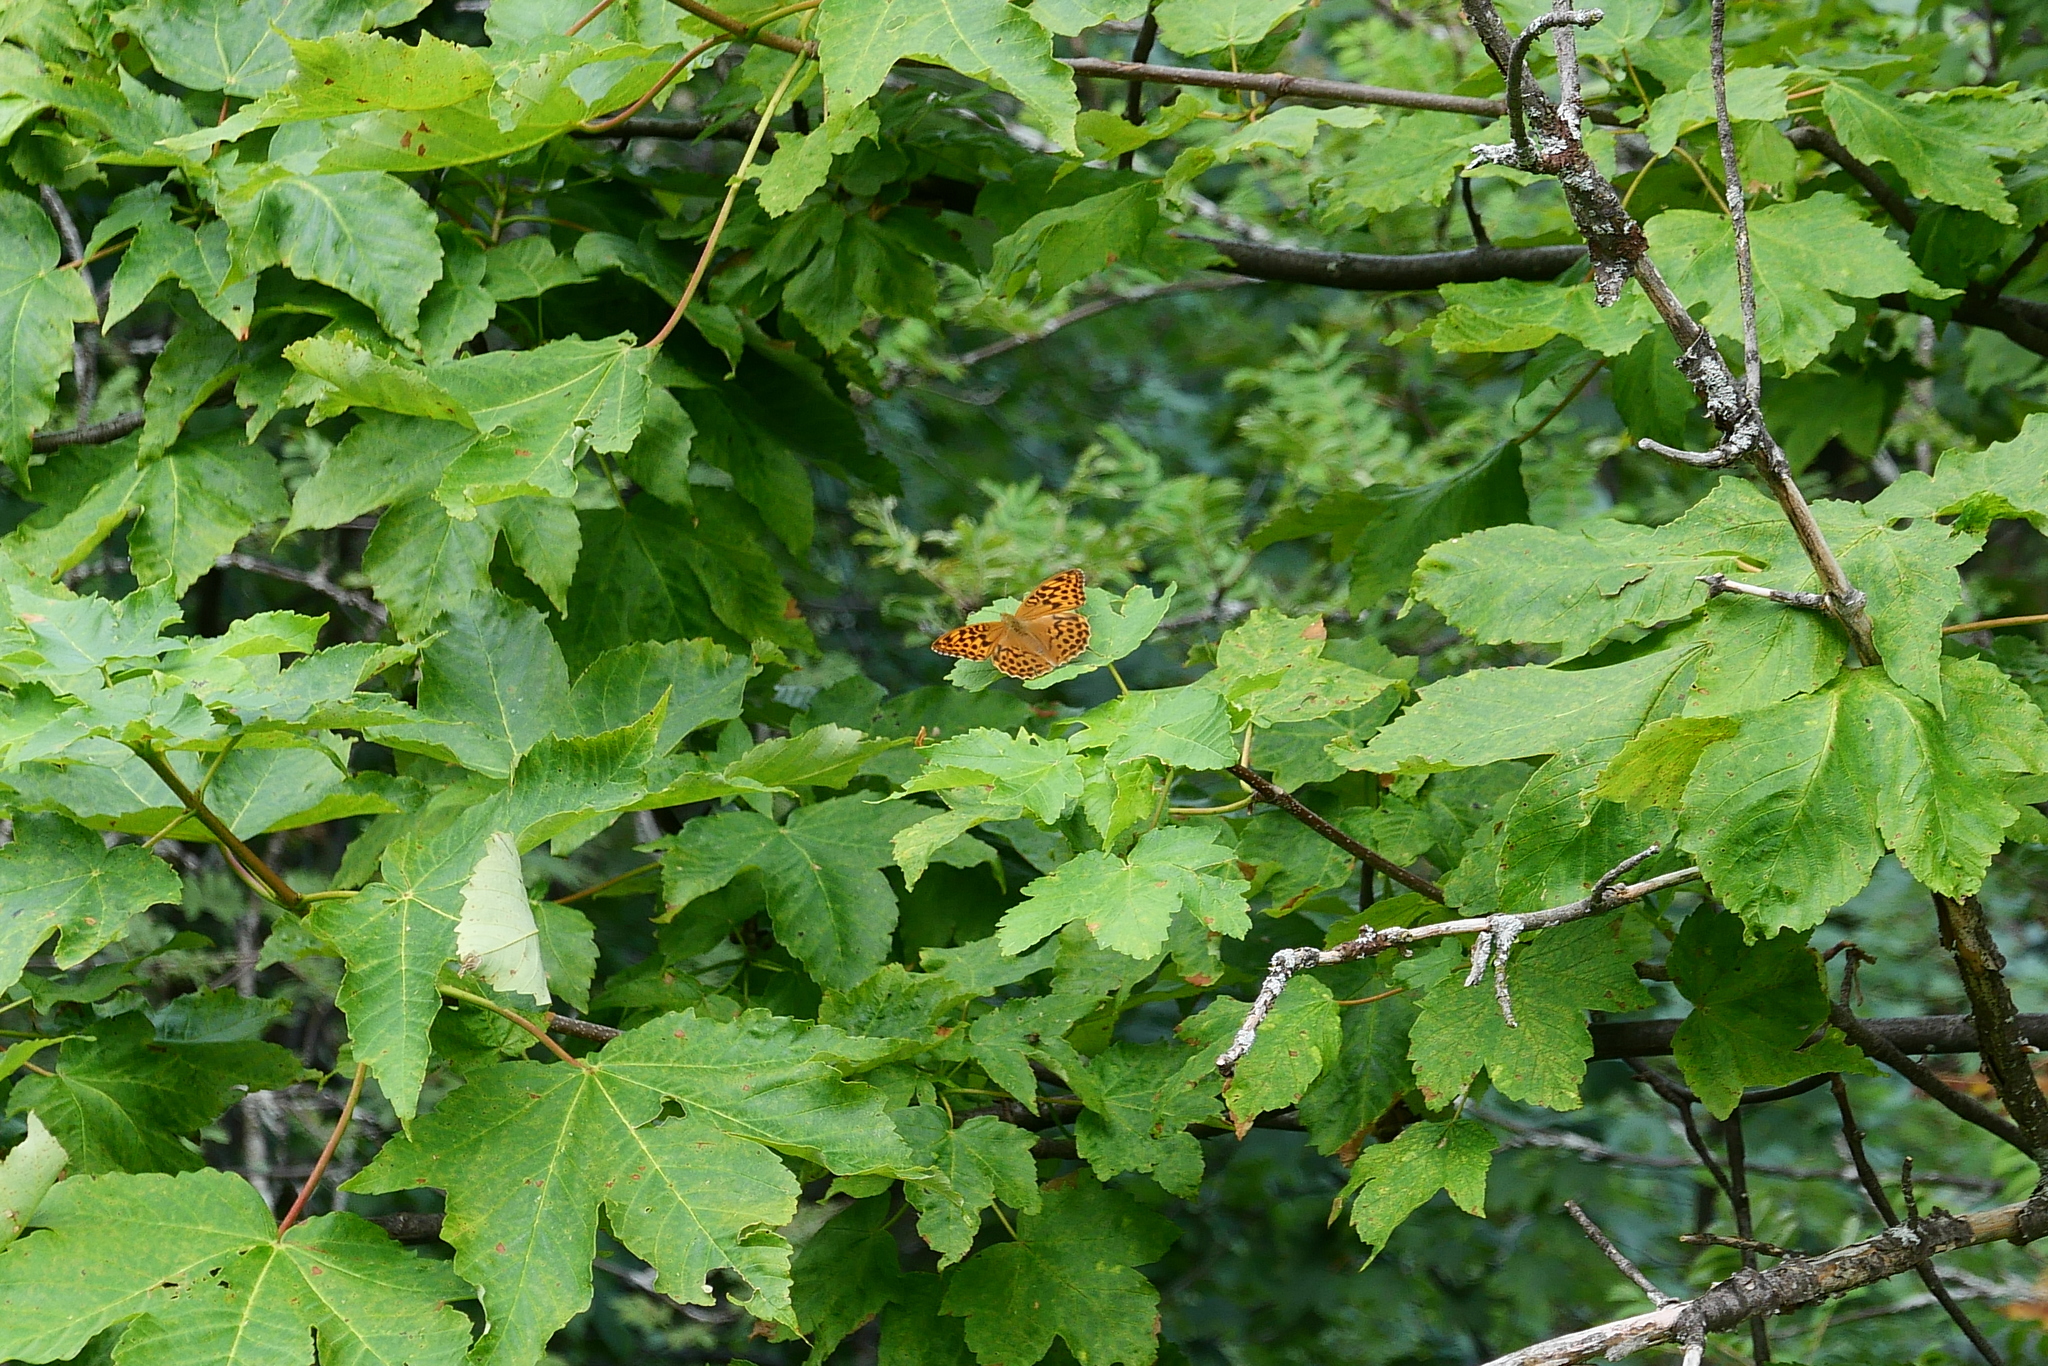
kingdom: Animalia
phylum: Arthropoda
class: Insecta
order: Lepidoptera
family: Nymphalidae
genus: Argynnis
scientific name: Argynnis paphia
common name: Silver-washed fritillary
